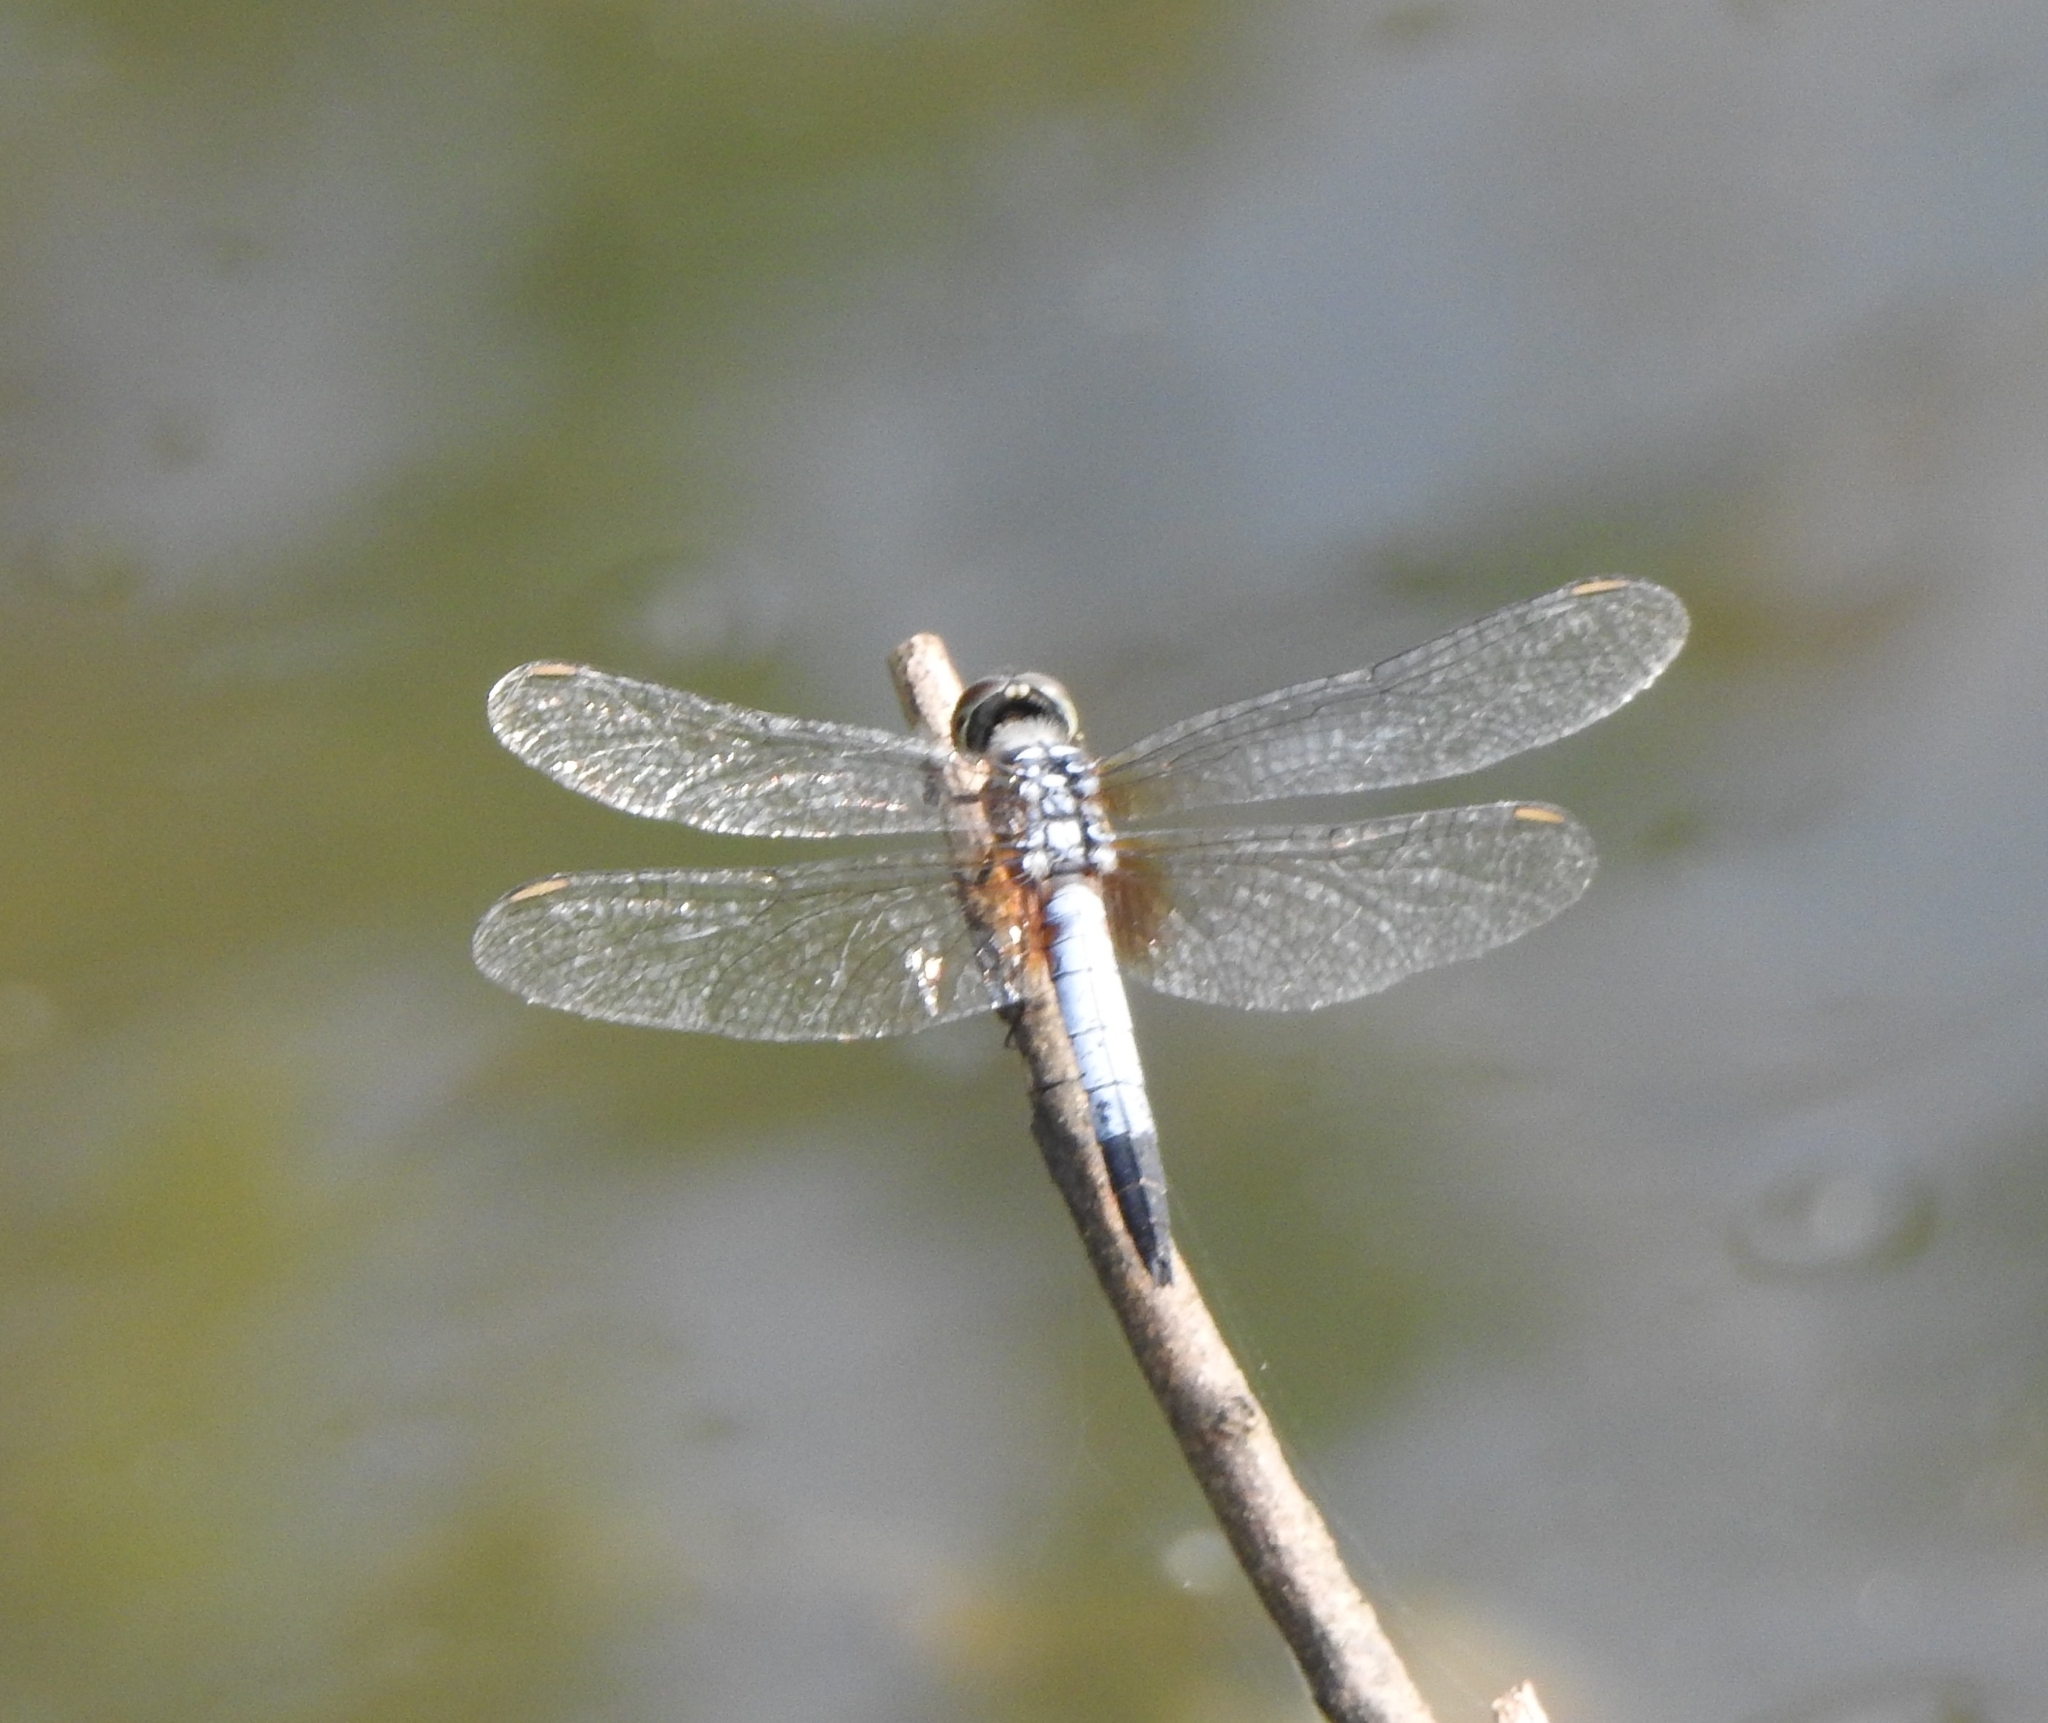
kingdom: Animalia
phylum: Arthropoda
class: Insecta
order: Odonata
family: Libellulidae
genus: Brachydiplax
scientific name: Brachydiplax chalybea
